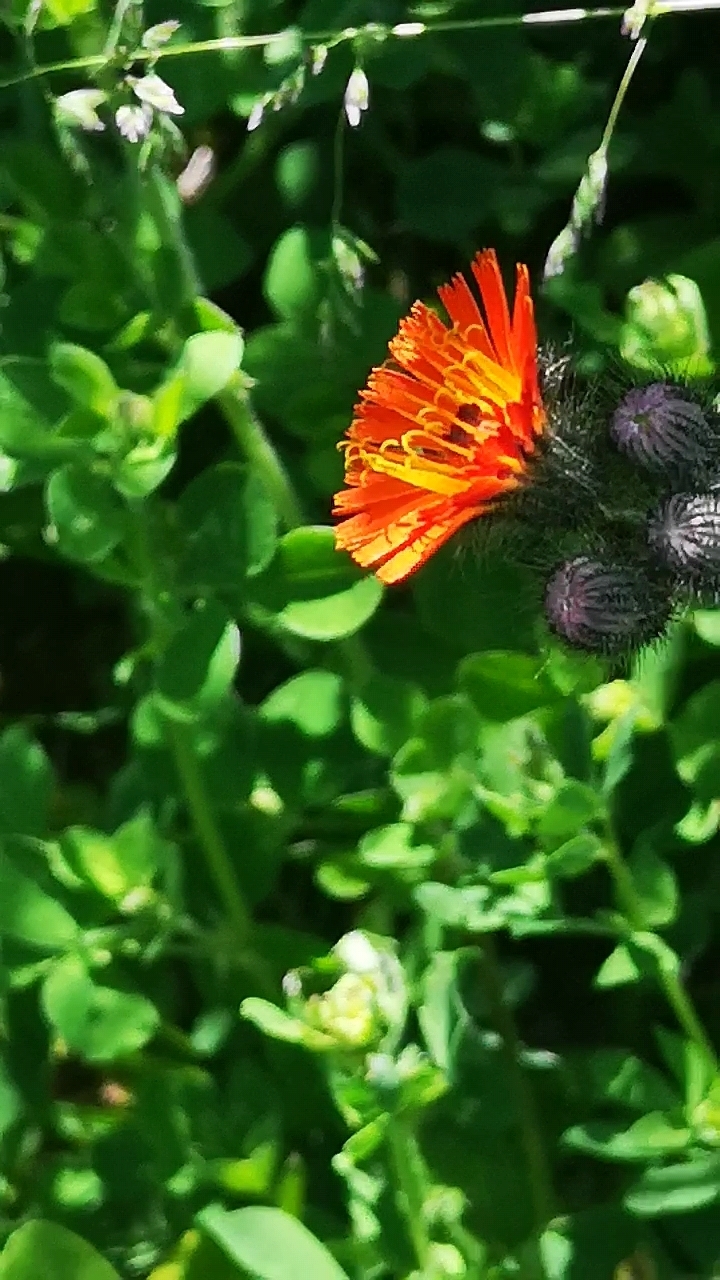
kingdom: Plantae
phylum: Tracheophyta
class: Magnoliopsida
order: Asterales
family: Asteraceae
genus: Pilosella
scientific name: Pilosella aurantiaca
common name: Fox-and-cubs
